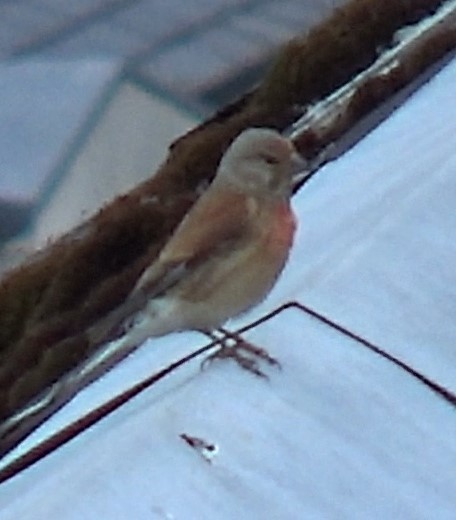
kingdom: Animalia
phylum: Chordata
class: Aves
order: Passeriformes
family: Fringillidae
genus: Linaria
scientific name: Linaria cannabina
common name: Common linnet
